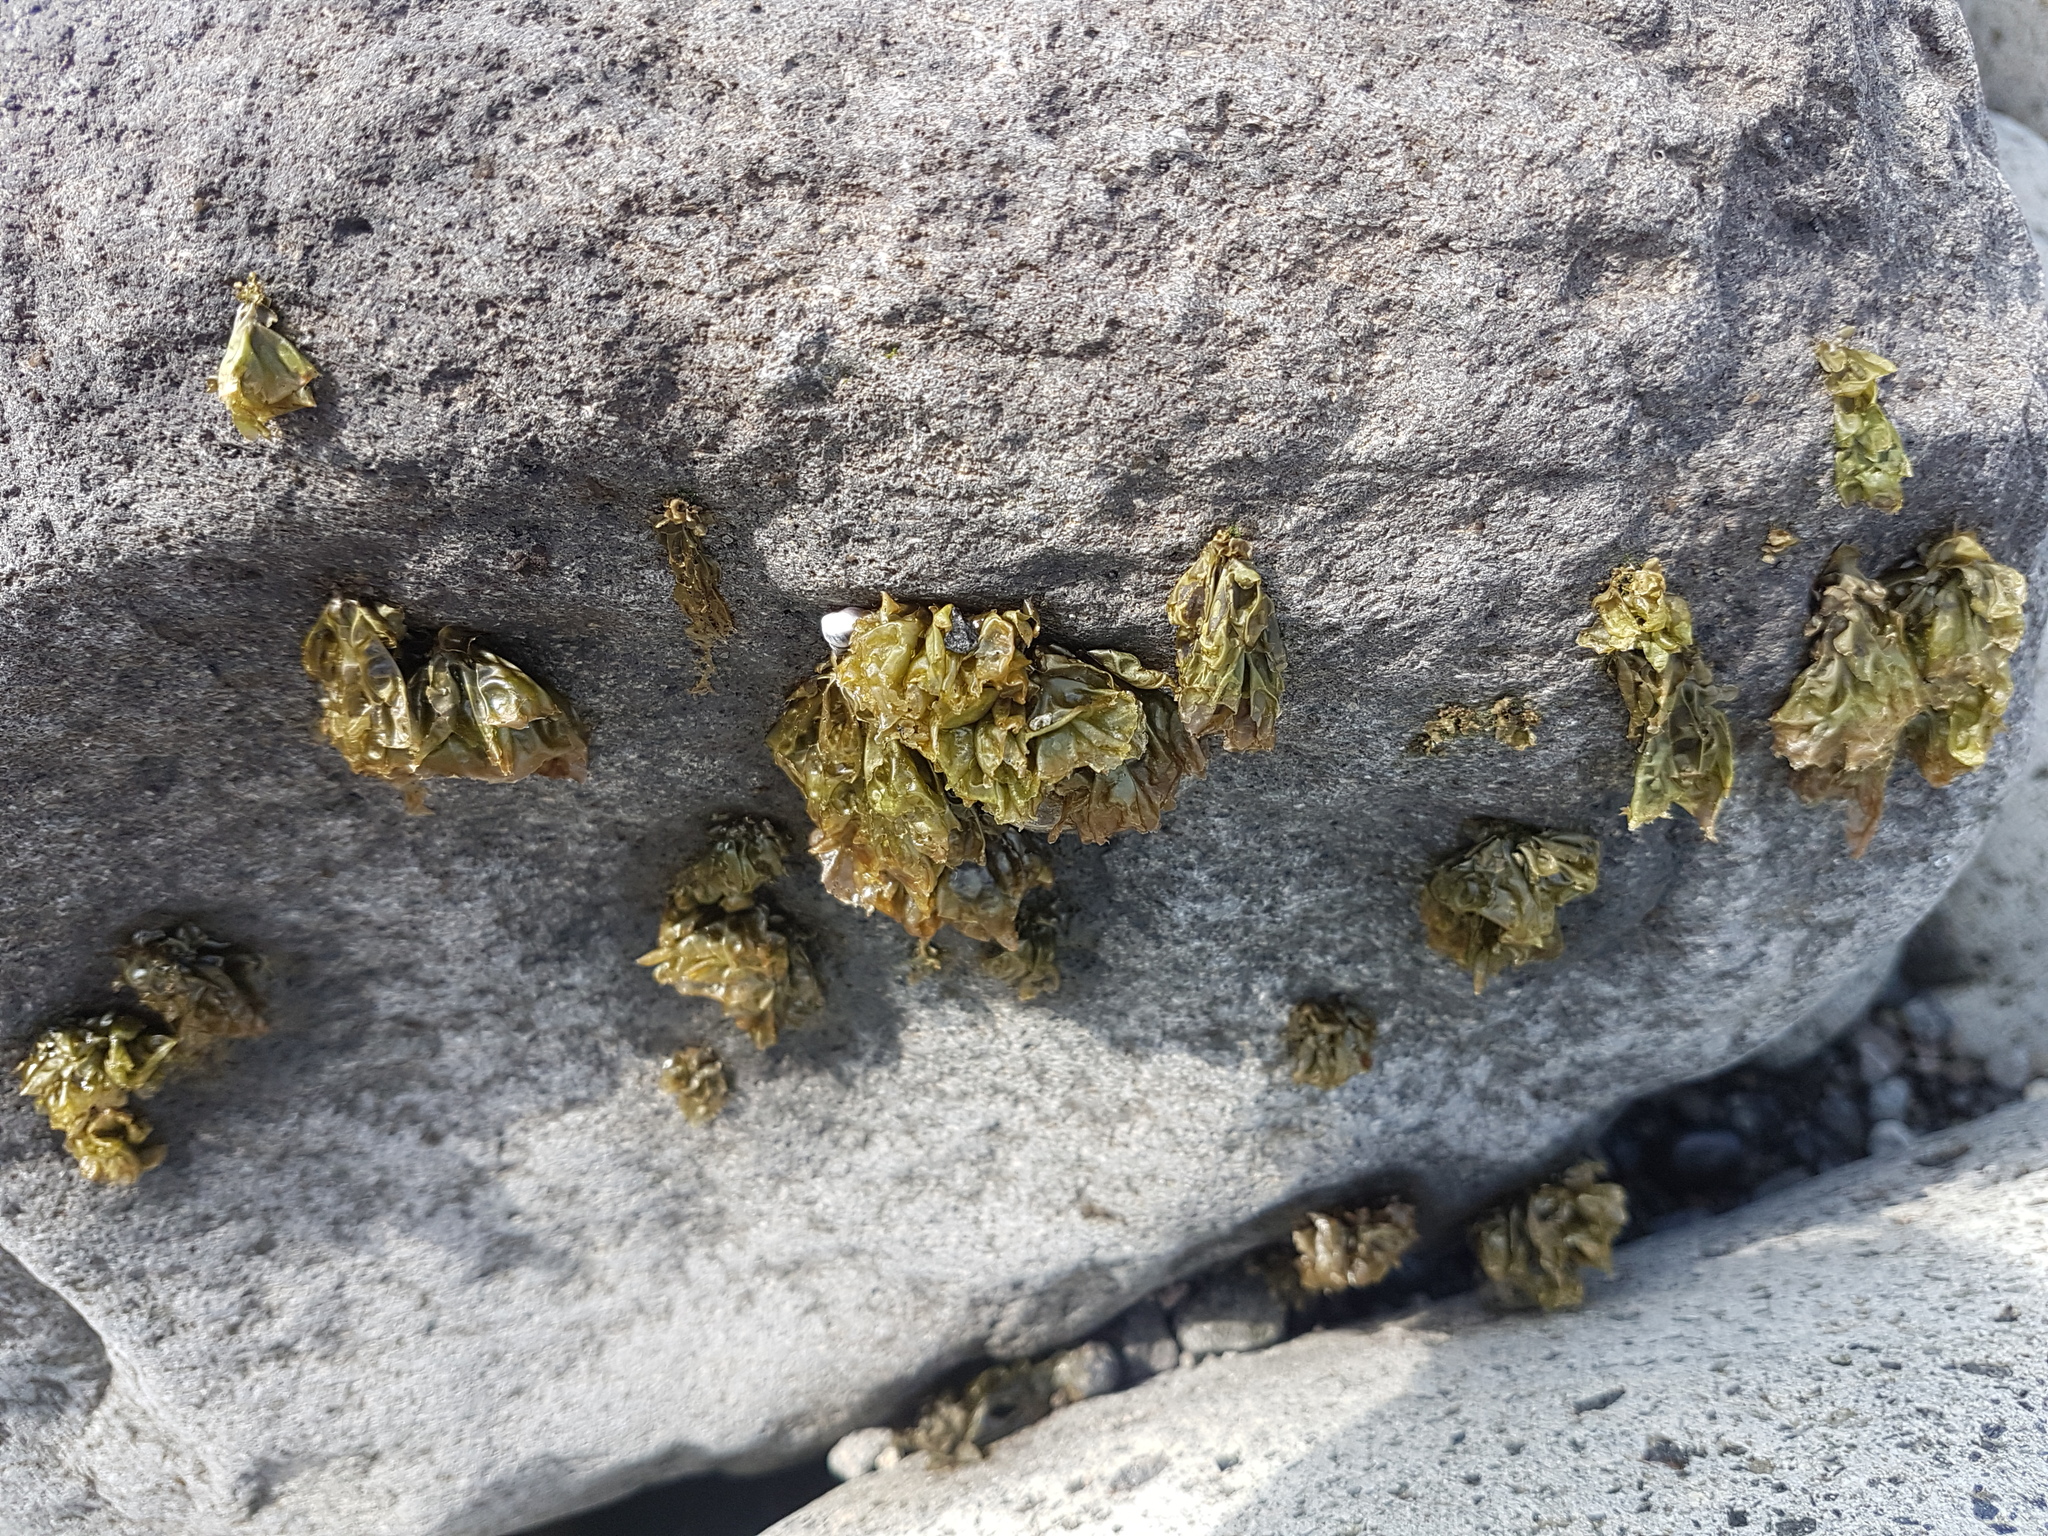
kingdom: Plantae
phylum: Rhodophyta
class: Bangiophyceae
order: Bangiales
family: Bangiaceae
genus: Clymene
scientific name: Clymene coleana
